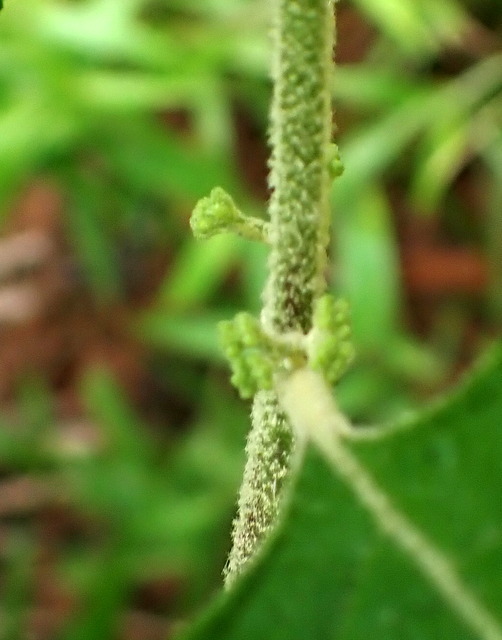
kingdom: Plantae
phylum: Tracheophyta
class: Magnoliopsida
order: Lamiales
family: Lamiaceae
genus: Callicarpa
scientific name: Callicarpa americana
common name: American beautyberry
